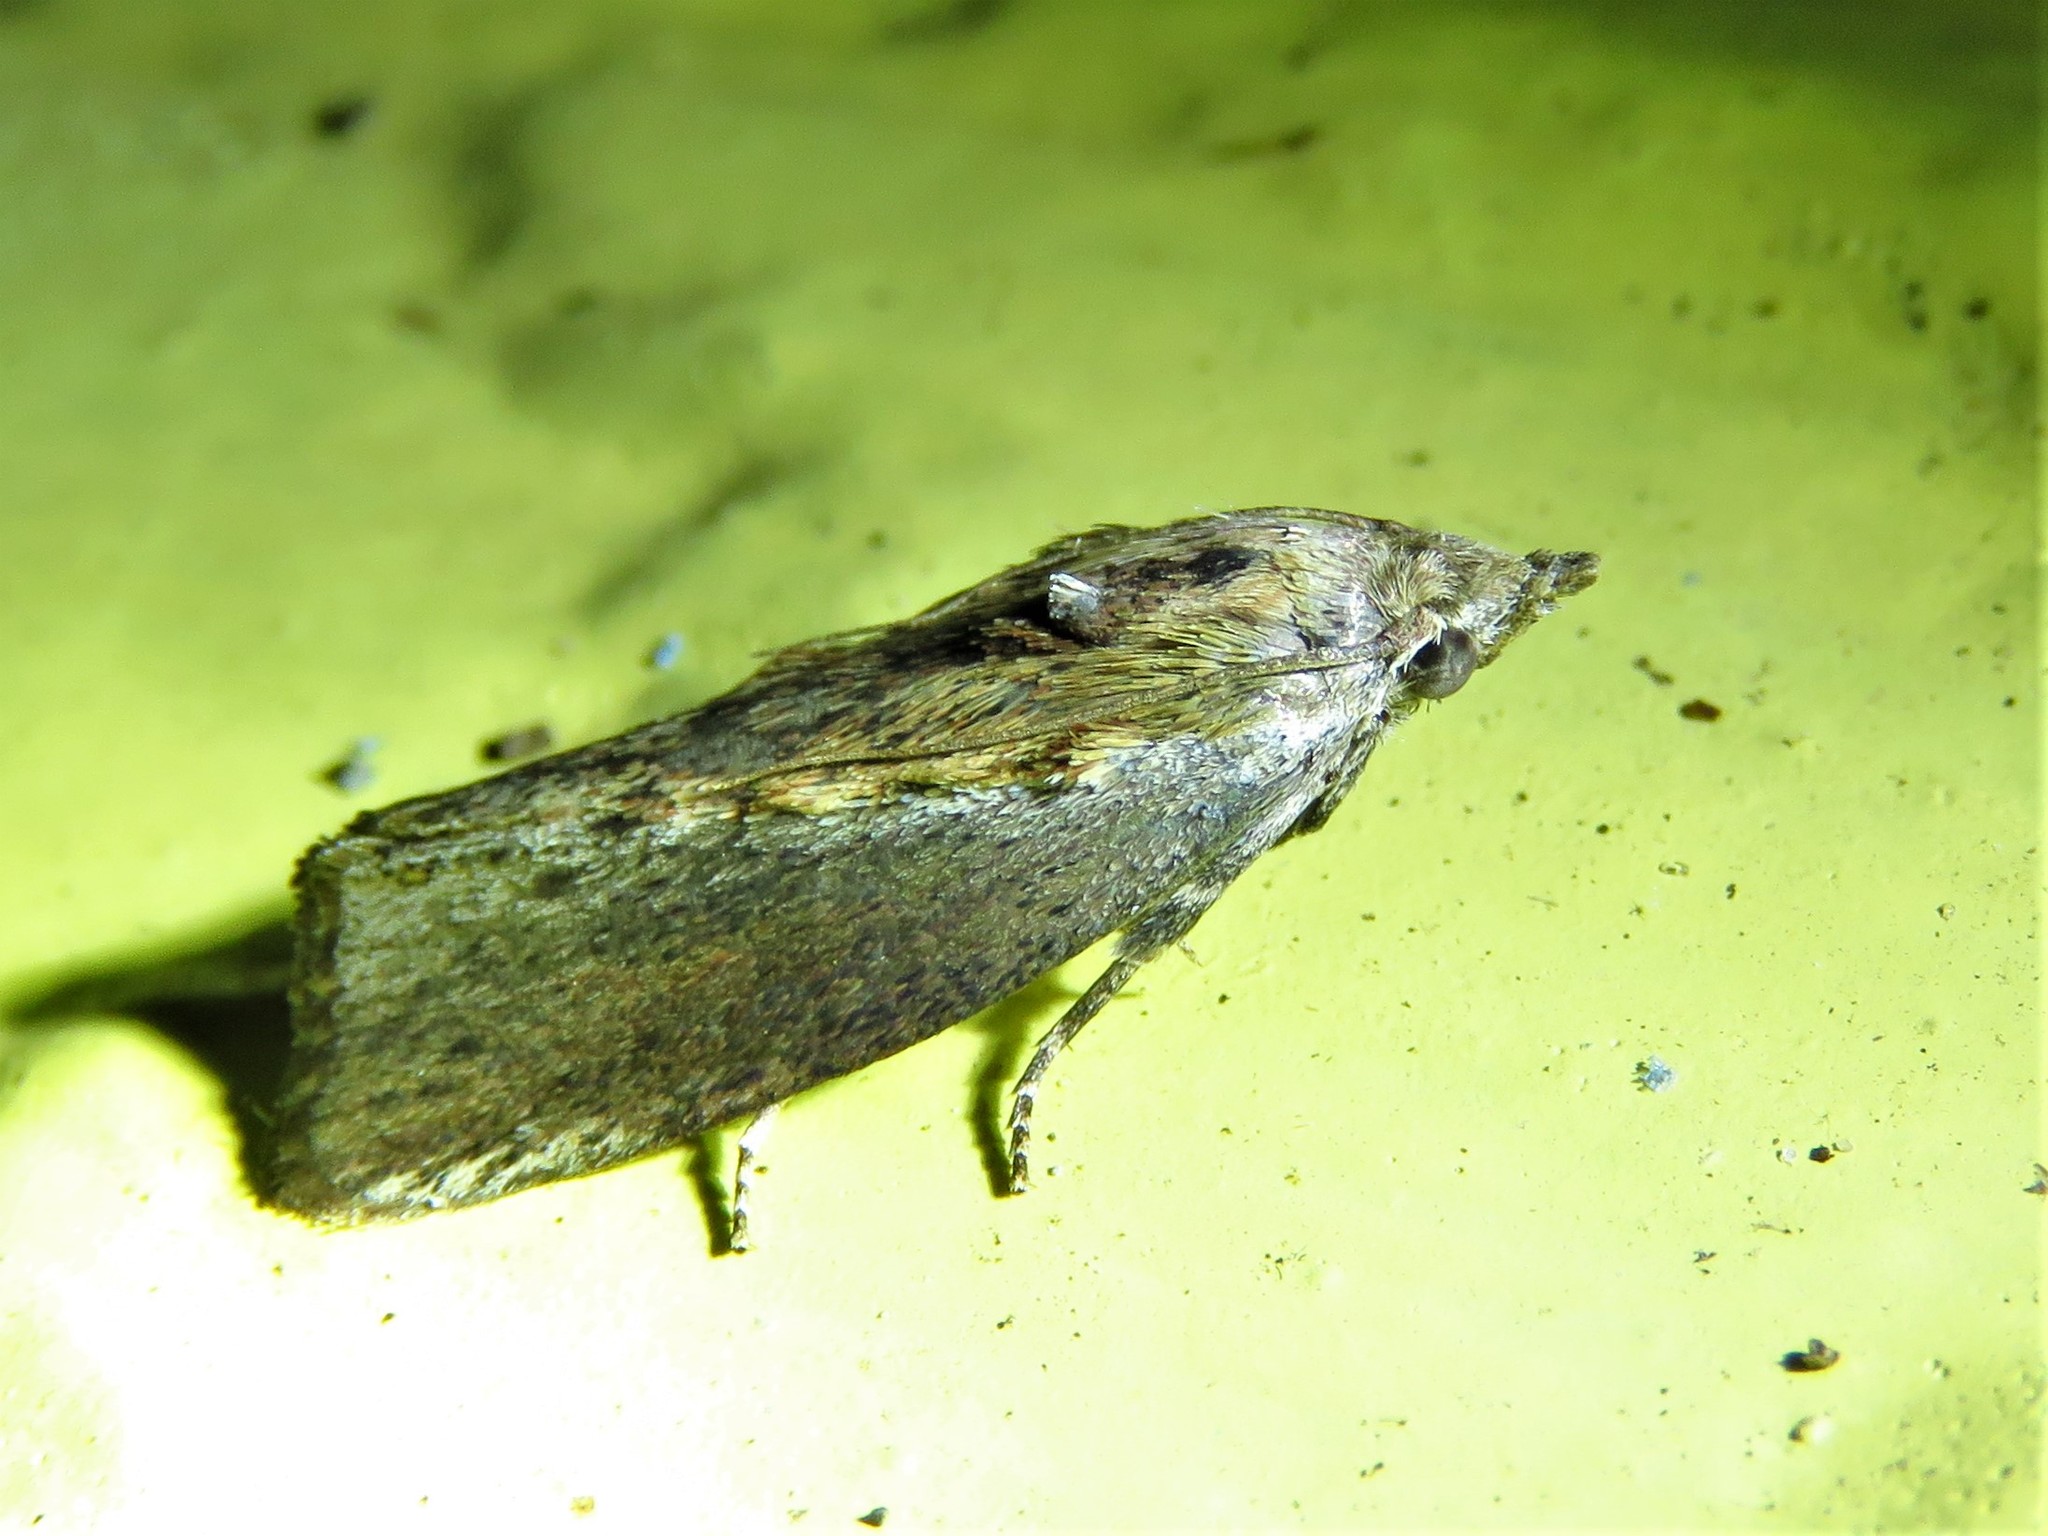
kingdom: Animalia
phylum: Arthropoda
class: Insecta
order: Lepidoptera
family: Pyralidae
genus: Galleria
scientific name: Galleria mellonella
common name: Greater wax moth
